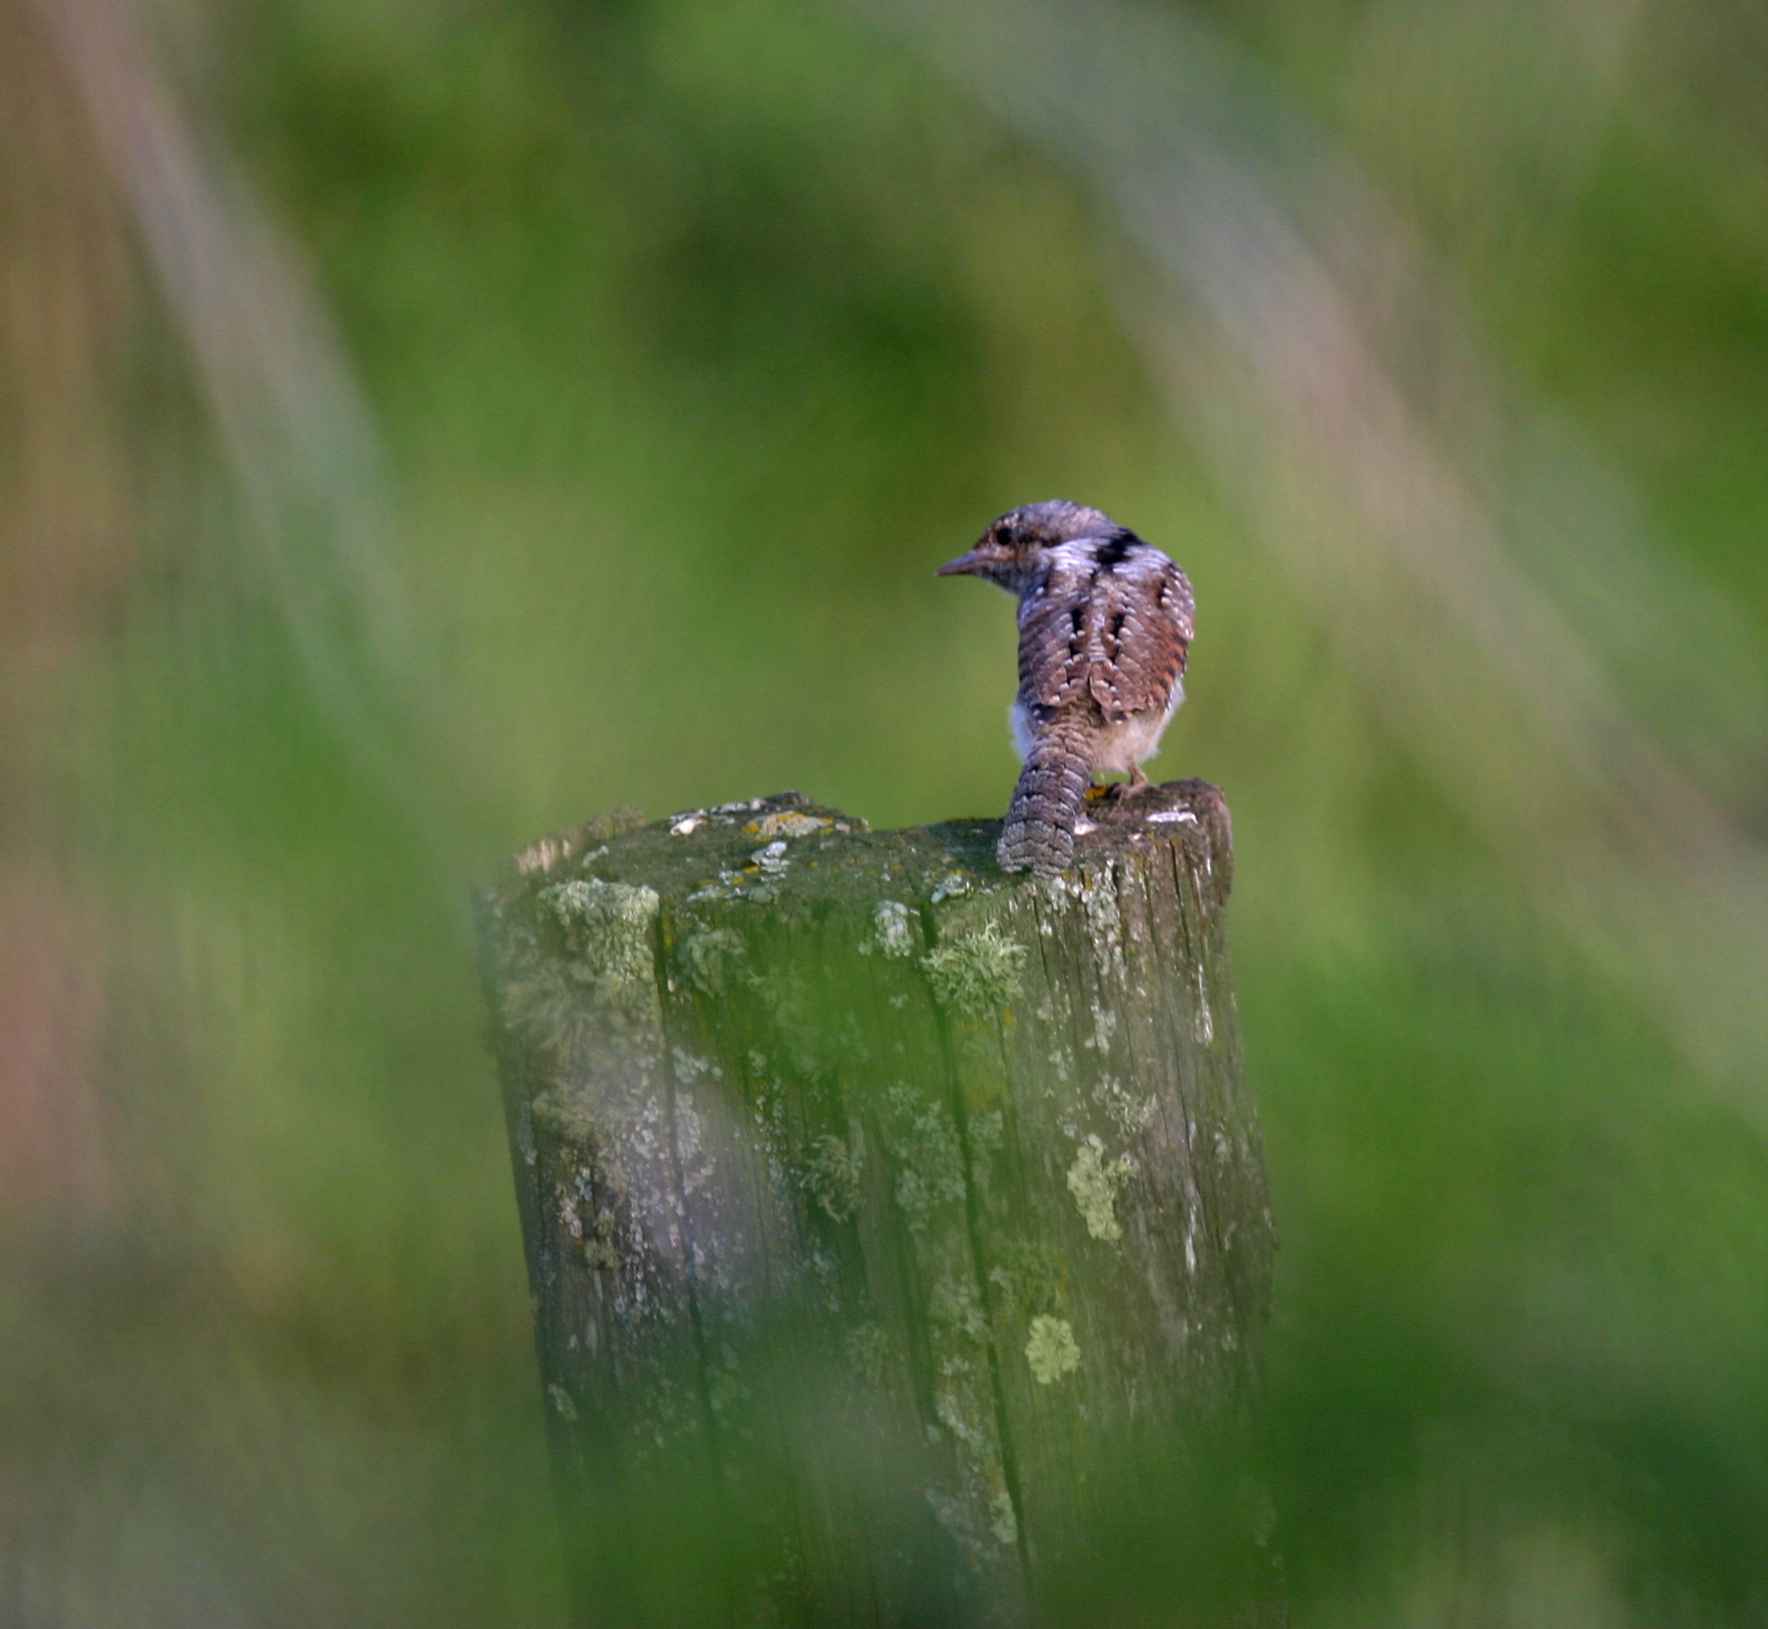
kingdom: Animalia
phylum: Chordata
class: Aves
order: Piciformes
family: Picidae
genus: Jynx
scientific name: Jynx torquilla
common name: Eurasian wryneck
